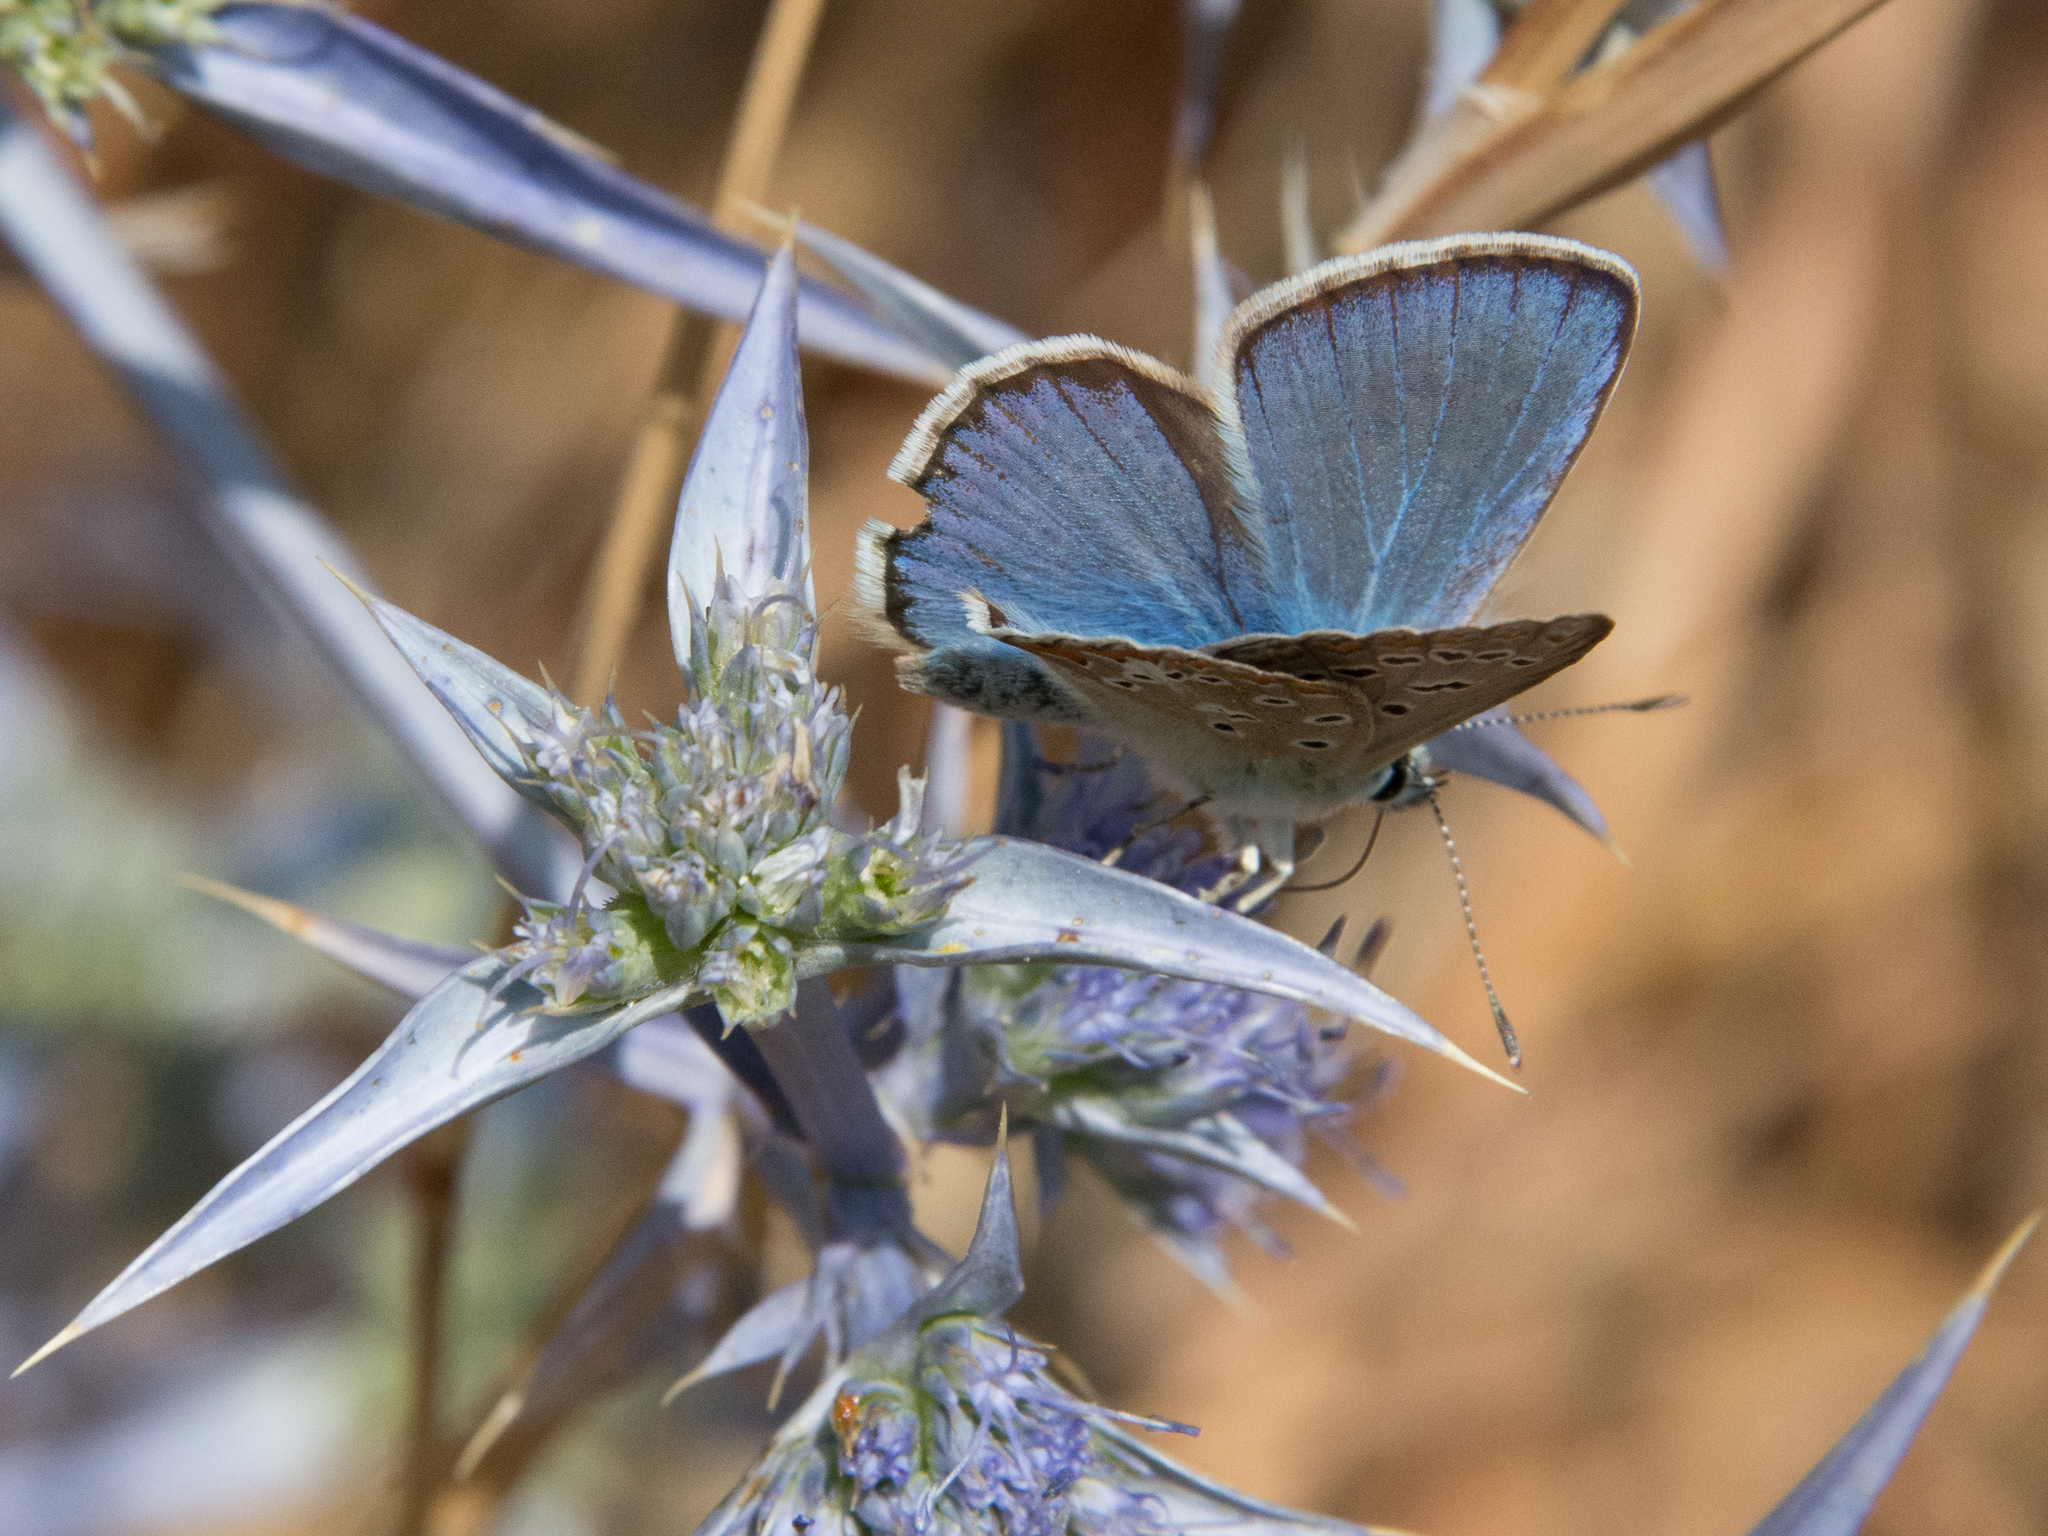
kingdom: Animalia
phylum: Arthropoda
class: Insecta
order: Lepidoptera
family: Lycaenidae
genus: Polyommatus
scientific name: Polyommatus celina
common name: Austaut's blue
